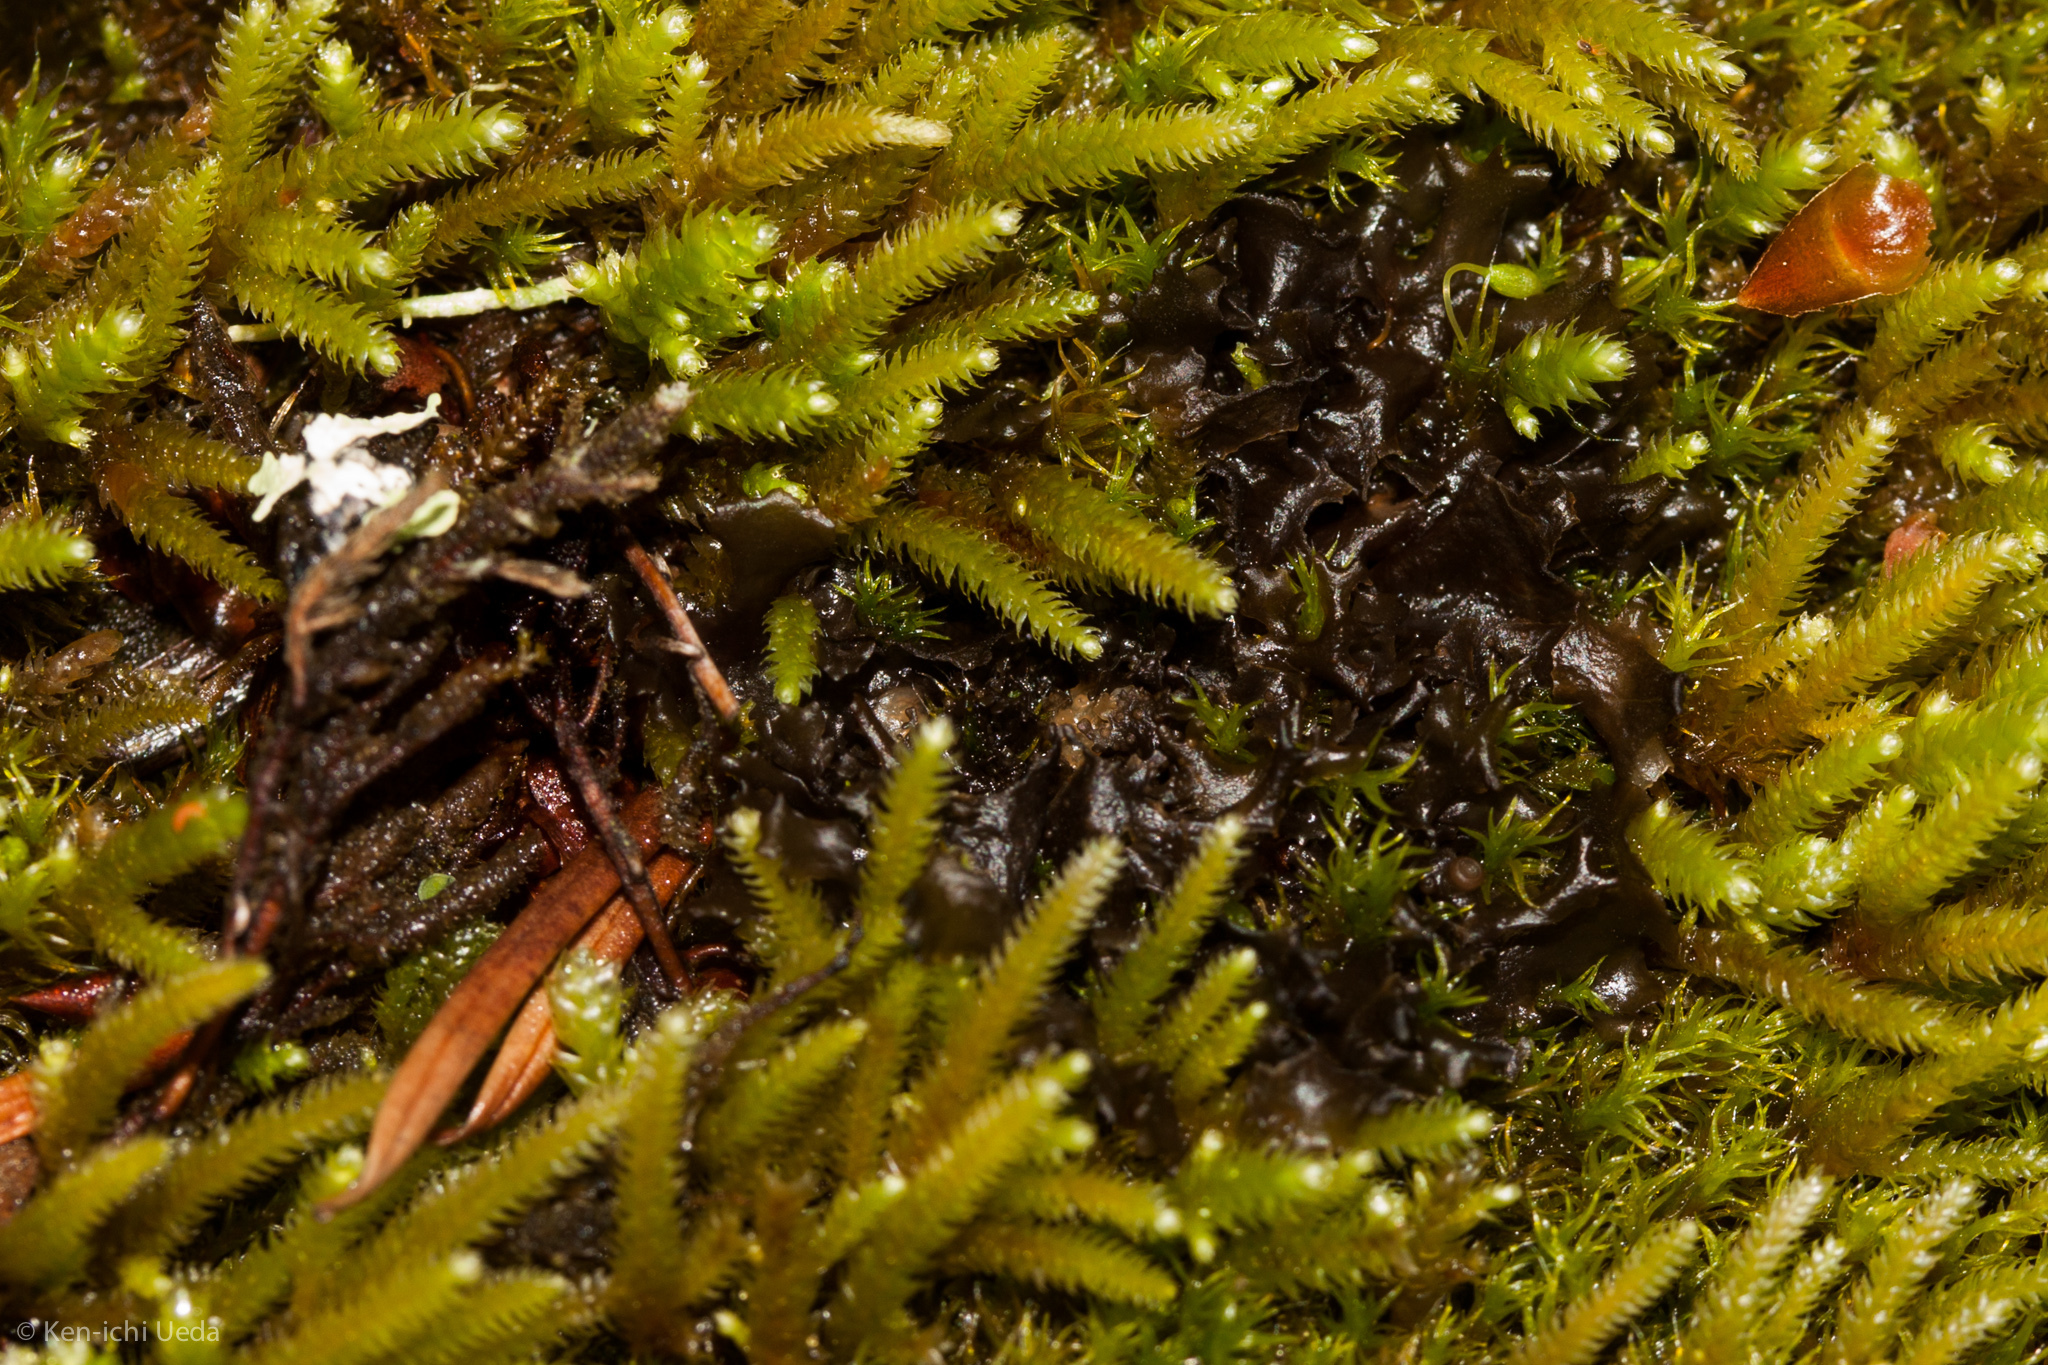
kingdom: Fungi
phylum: Ascomycota
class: Lecanoromycetes
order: Peltigerales
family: Collemataceae
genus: Scytinium
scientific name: Scytinium palmatum
